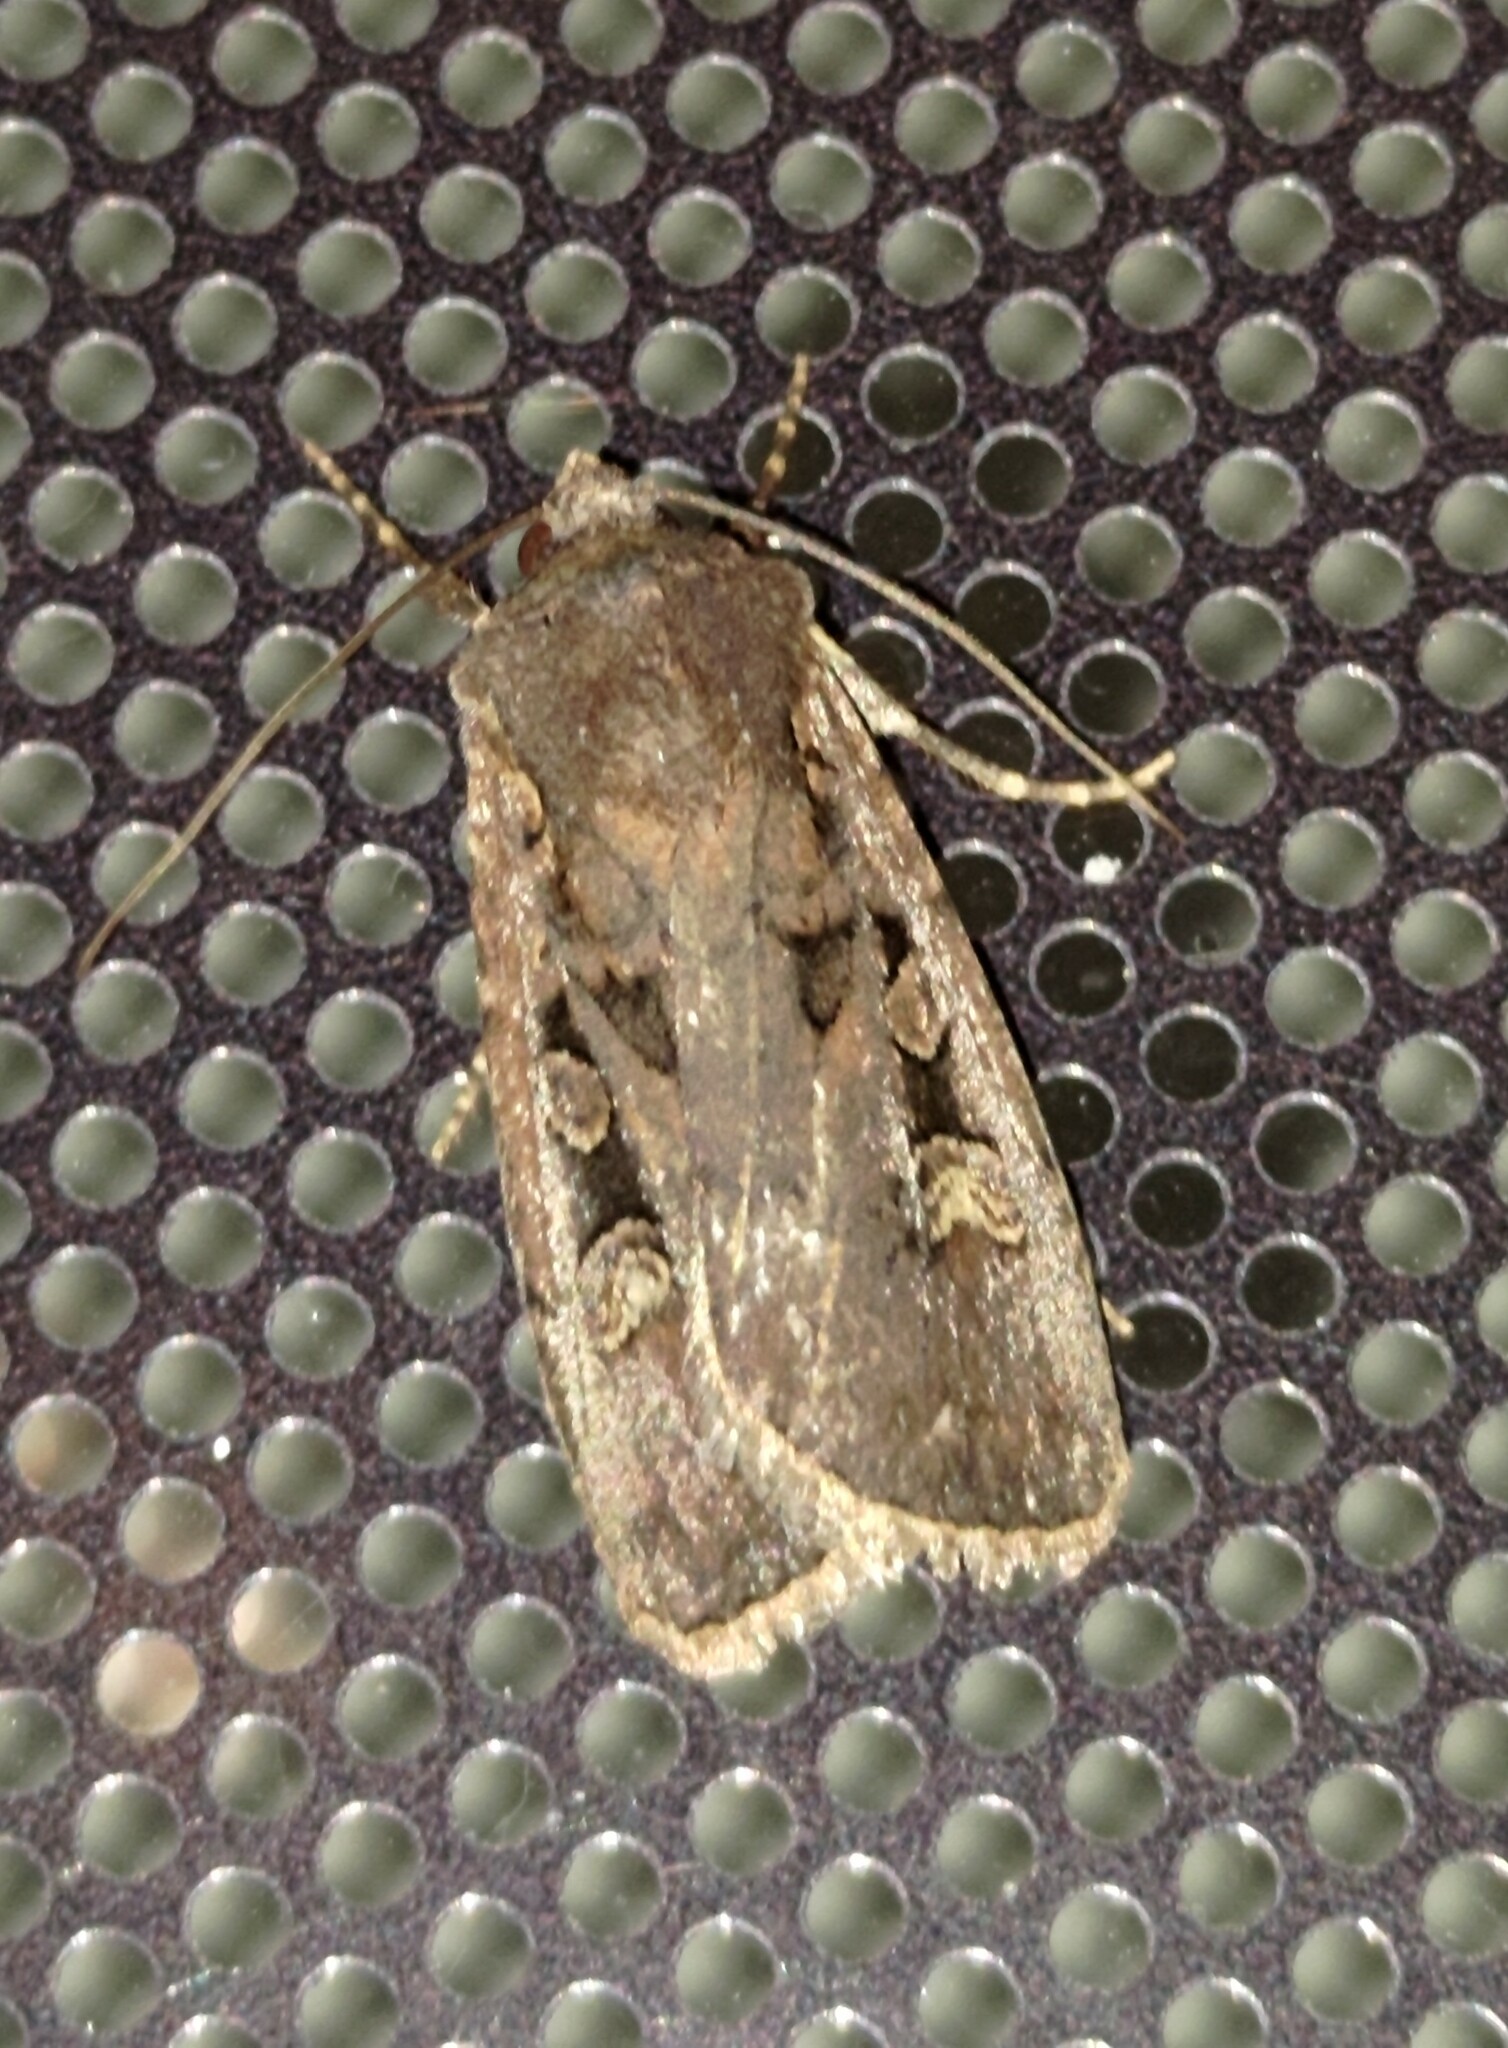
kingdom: Animalia
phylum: Arthropoda
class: Insecta
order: Lepidoptera
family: Noctuidae
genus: Euxoa
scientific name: Euxoa obelisca
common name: Square-spot dart
